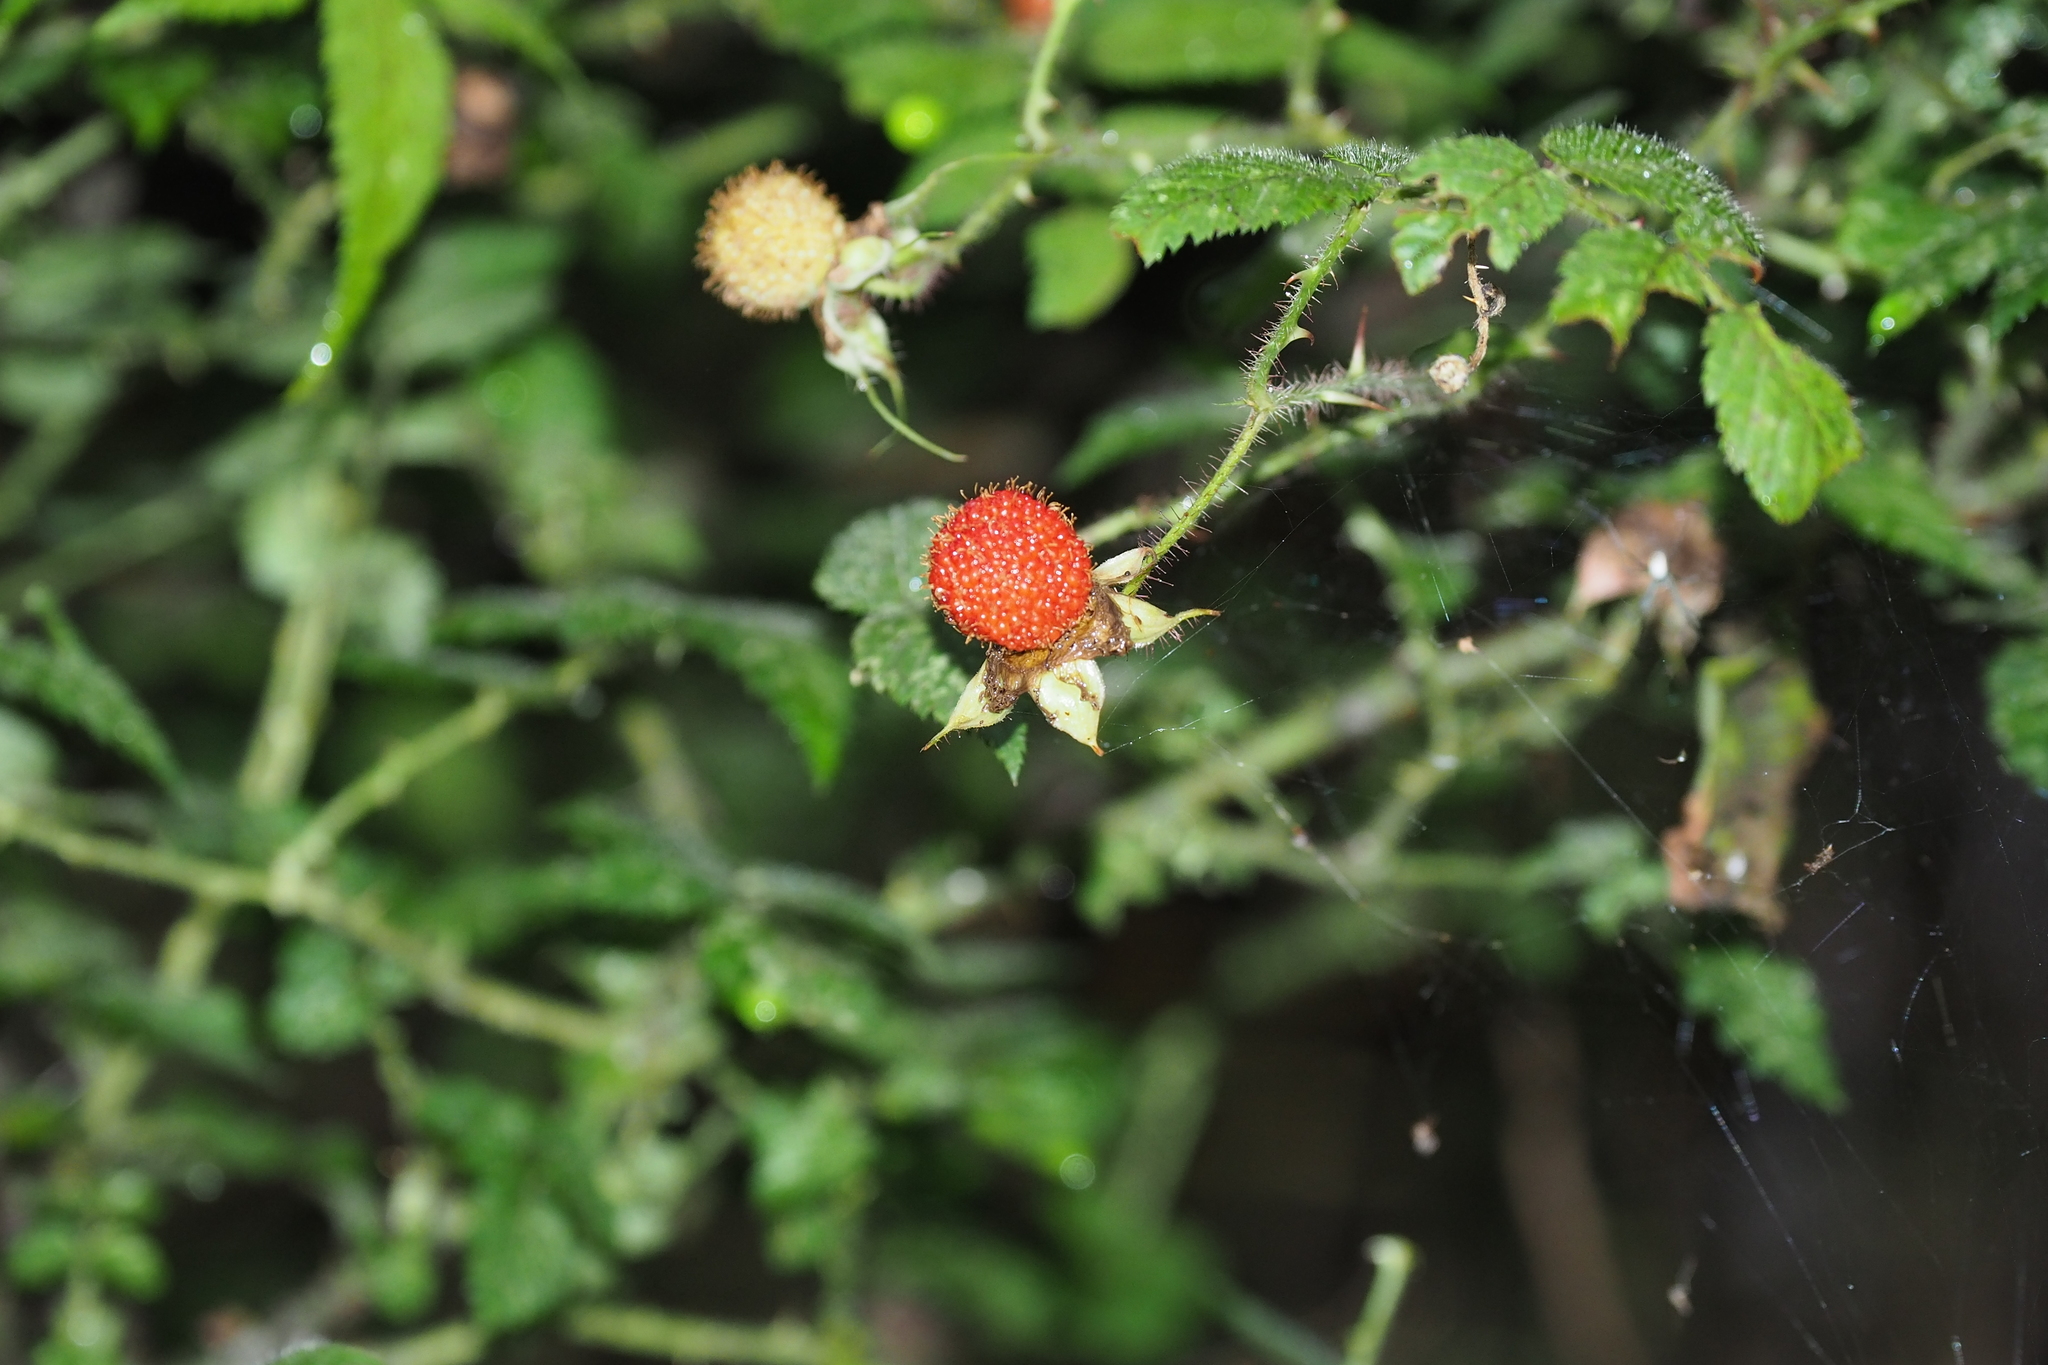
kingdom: Plantae
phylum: Tracheophyta
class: Magnoliopsida
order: Rosales
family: Rosaceae
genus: Rubus
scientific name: Rubus croceacanthus
